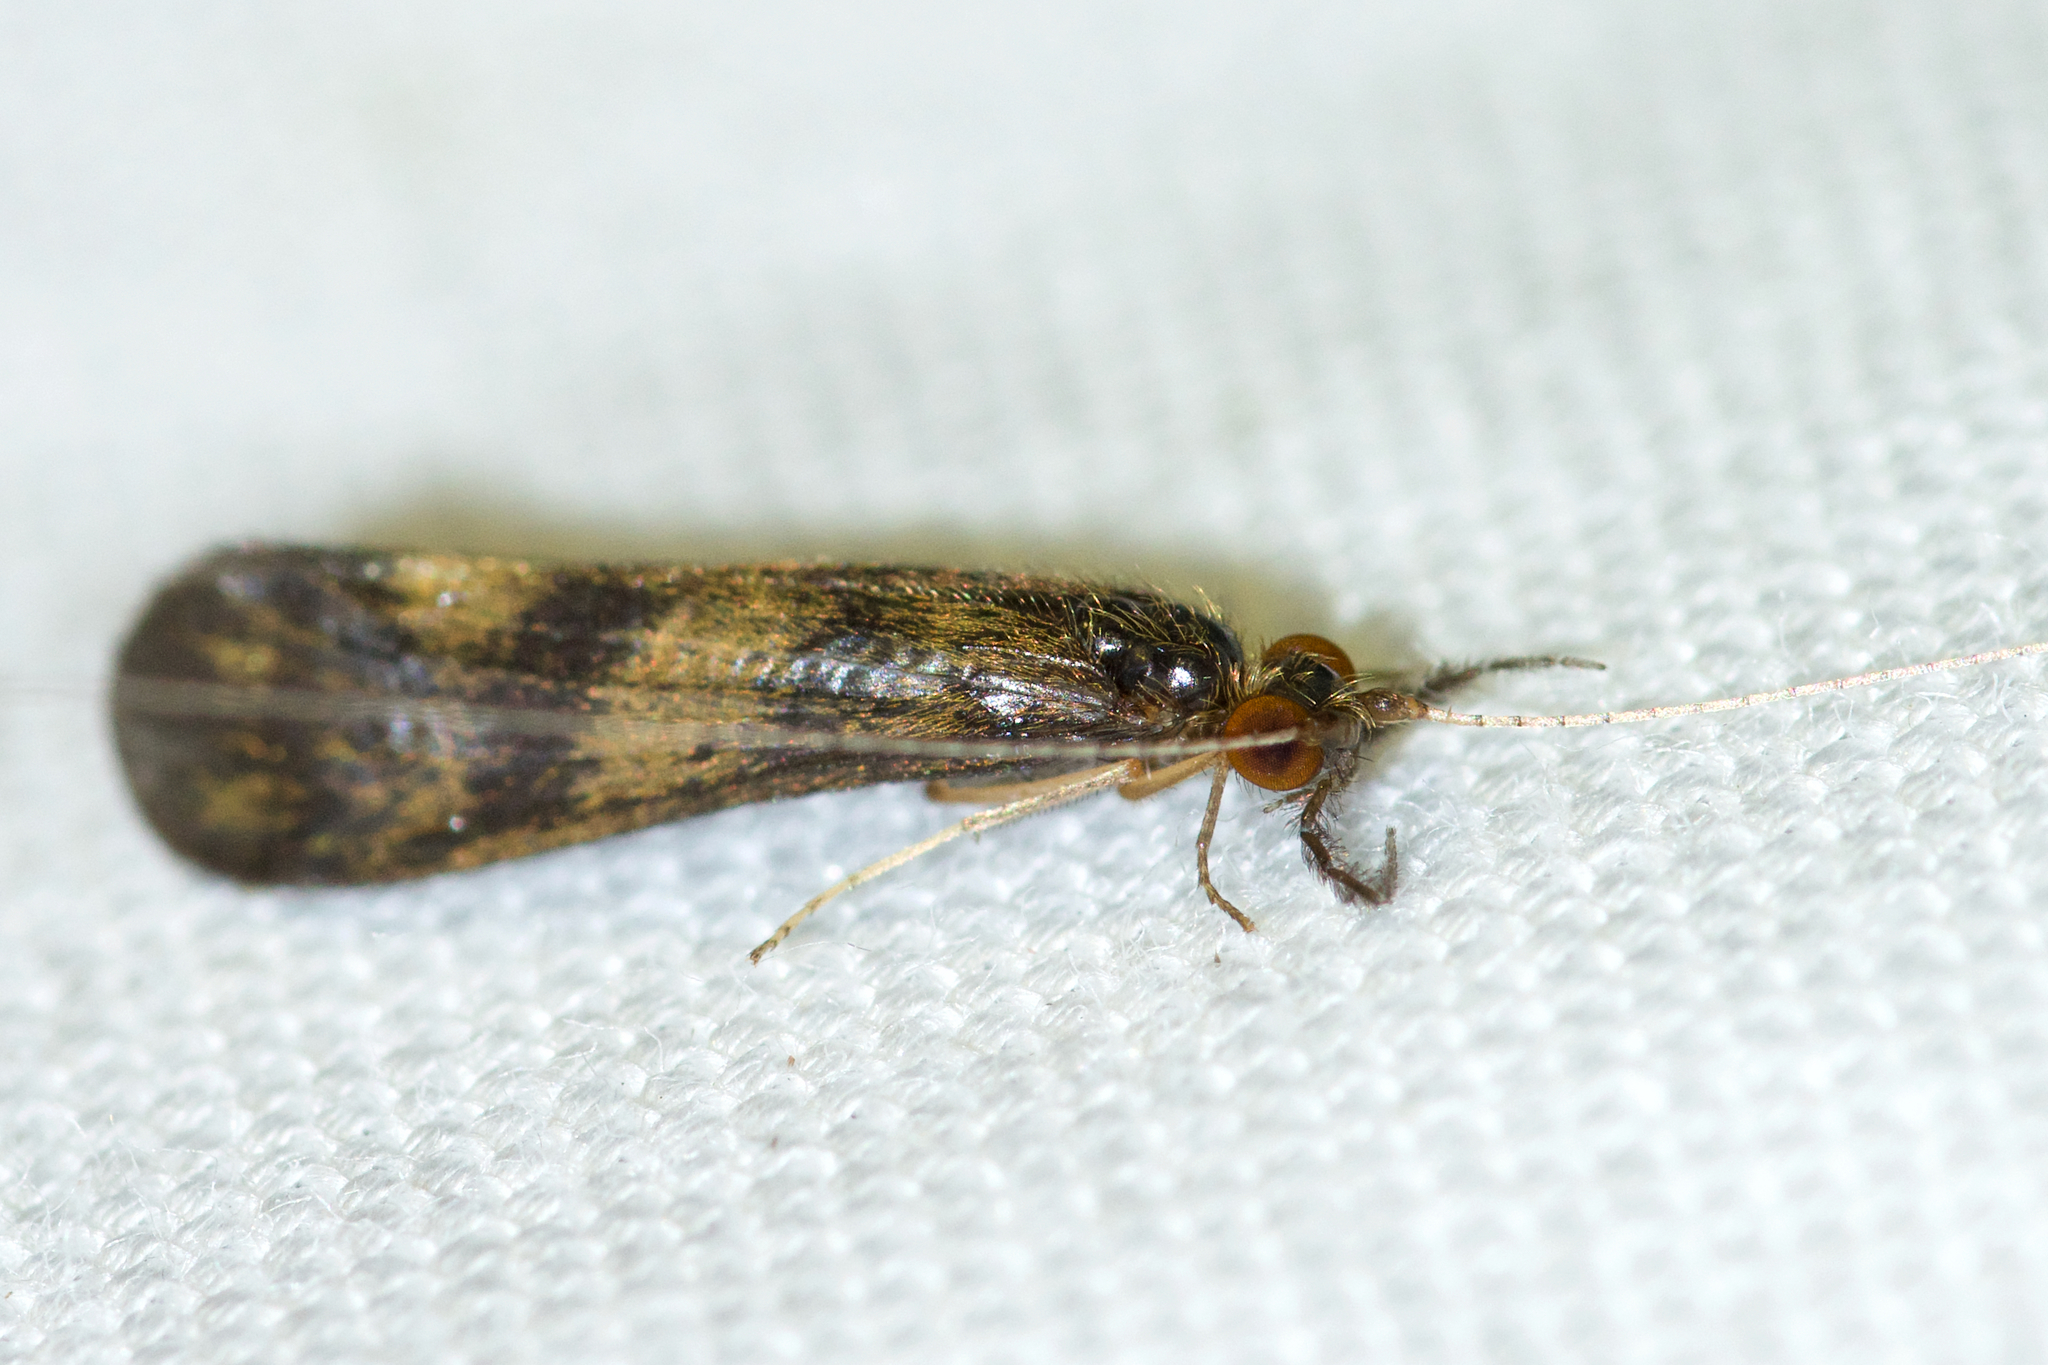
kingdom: Animalia
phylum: Arthropoda
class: Insecta
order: Trichoptera
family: Leptoceridae
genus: Mystacides
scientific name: Mystacides interjectus
